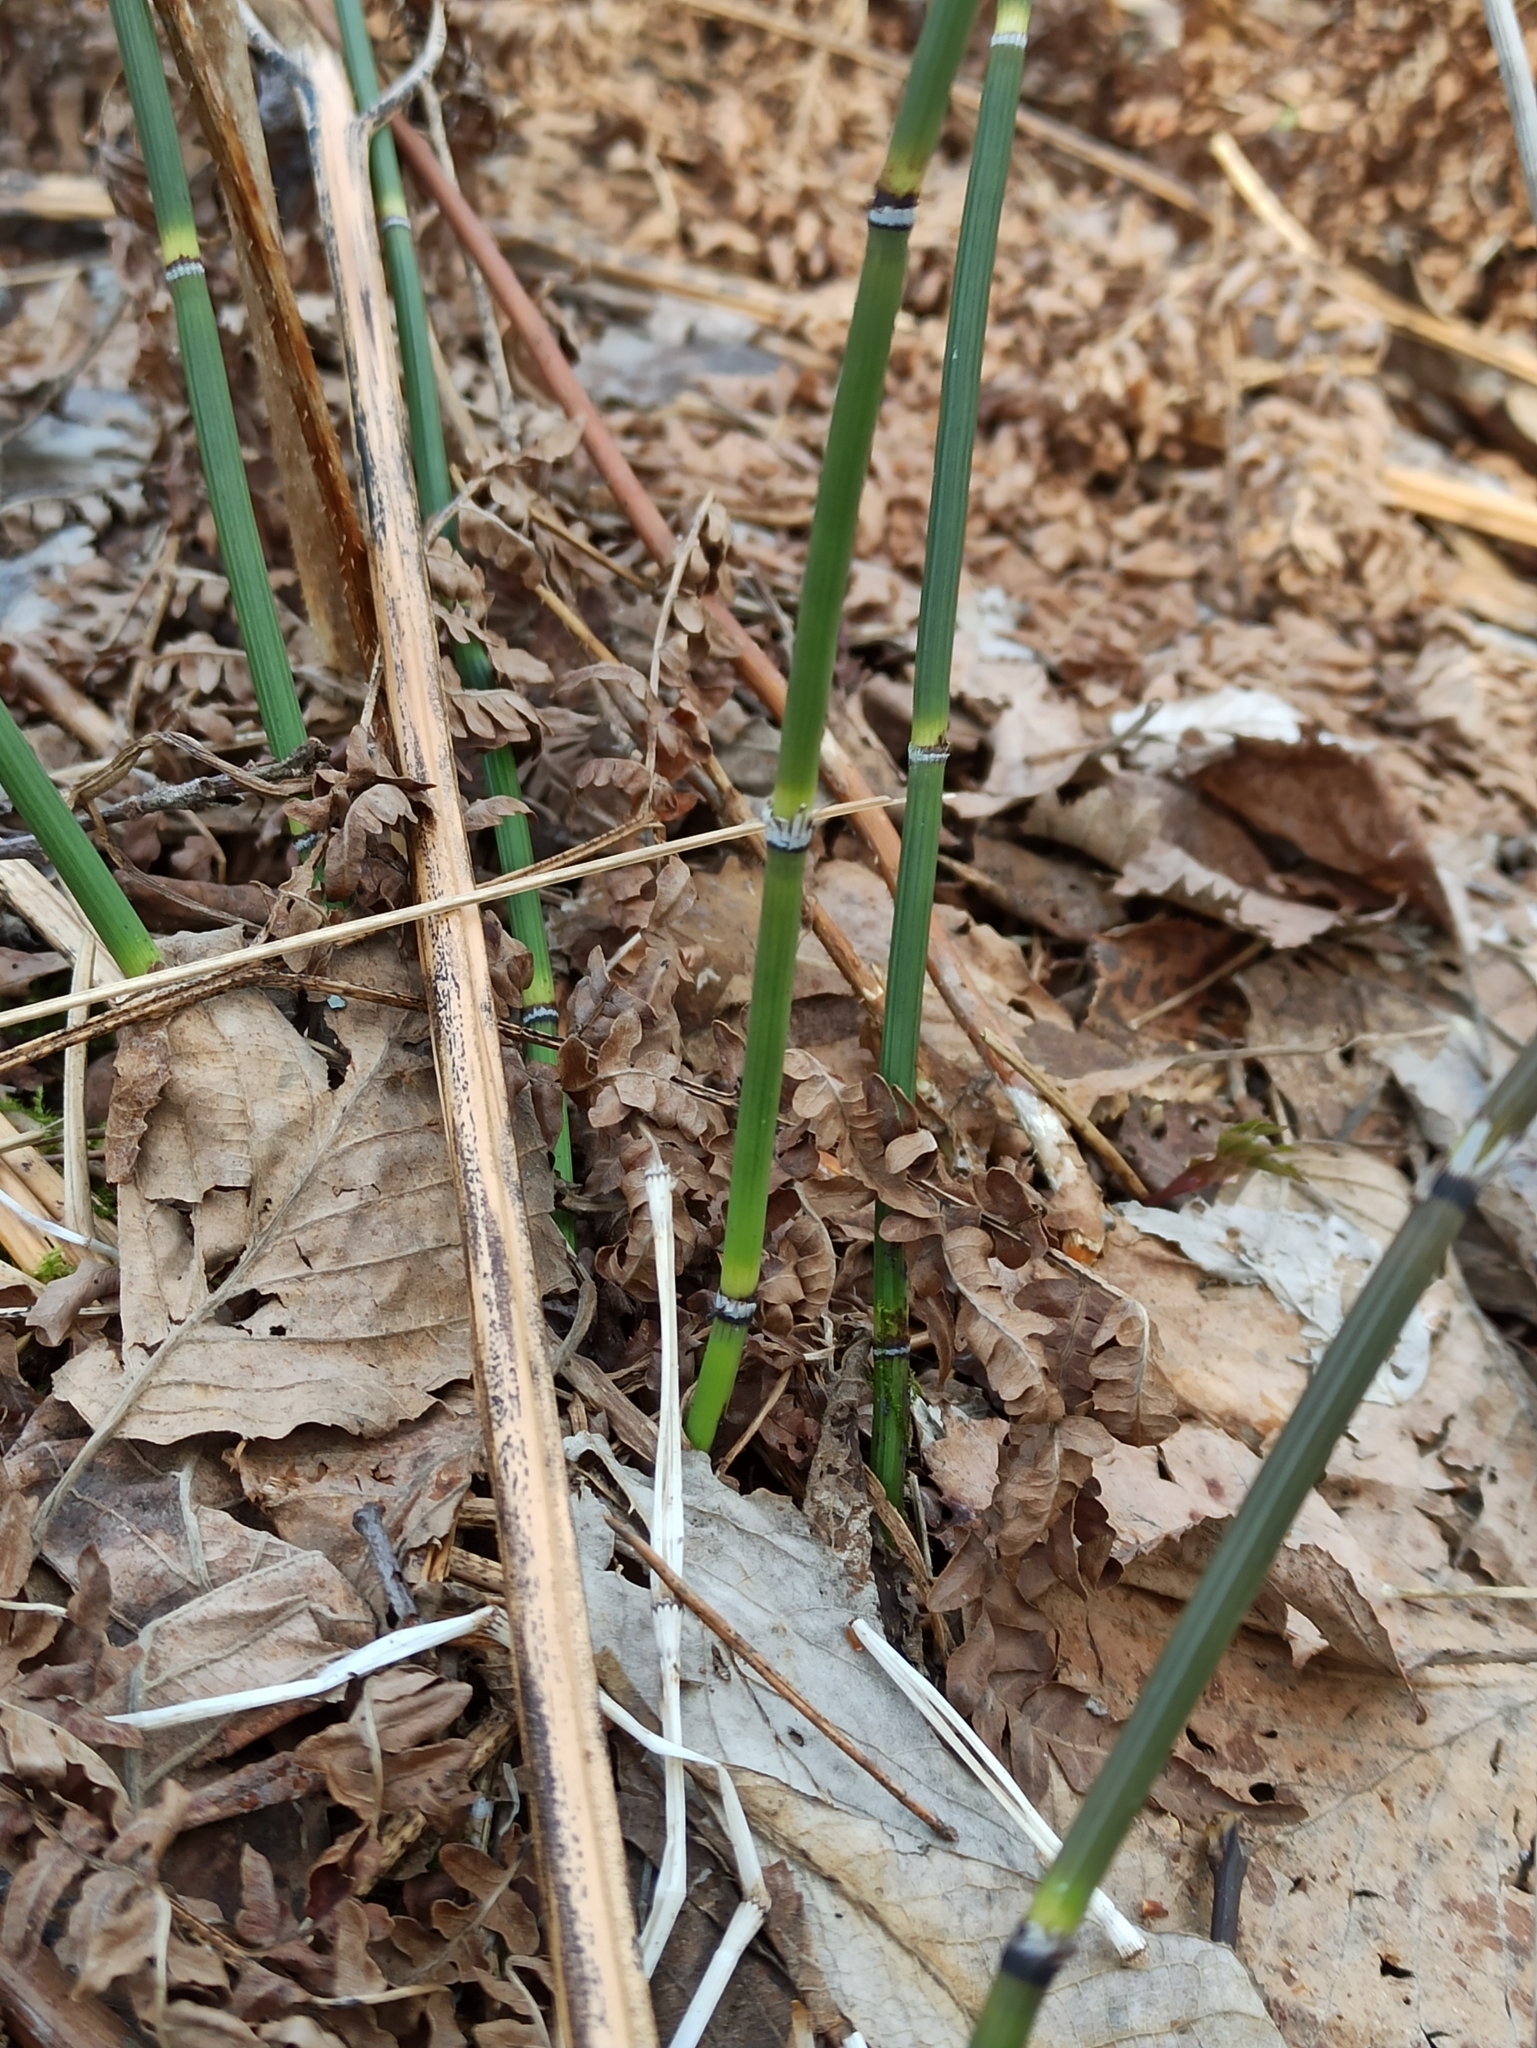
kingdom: Plantae
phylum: Tracheophyta
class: Polypodiopsida
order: Equisetales
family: Equisetaceae
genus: Equisetum
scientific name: Equisetum hyemale
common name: Rough horsetail
